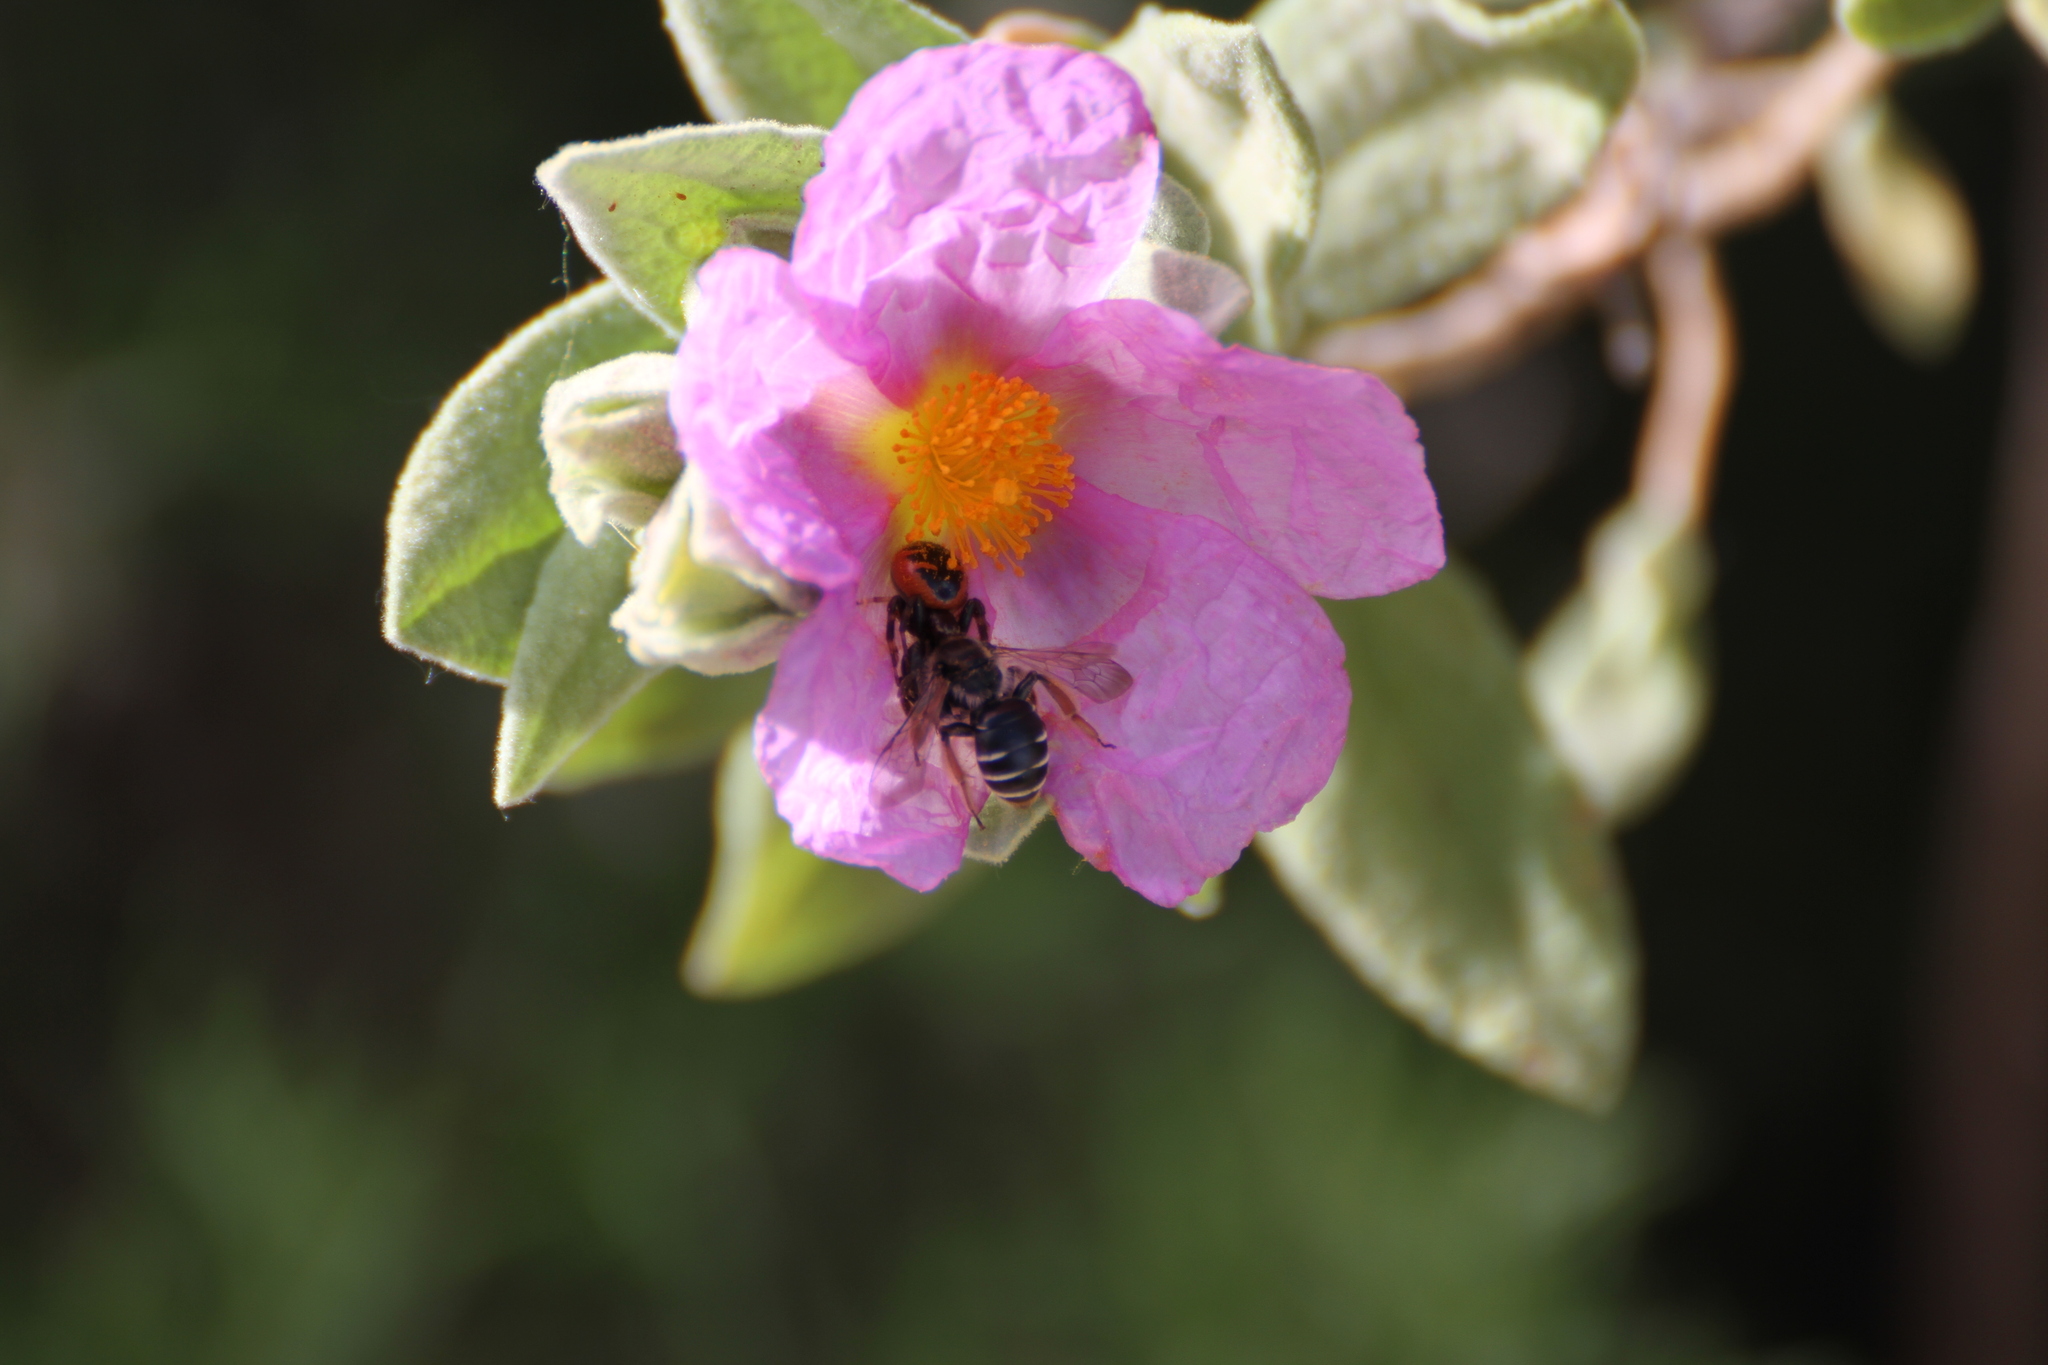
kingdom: Animalia
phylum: Arthropoda
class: Arachnida
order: Araneae
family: Thomisidae
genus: Synema
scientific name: Synema globosum
